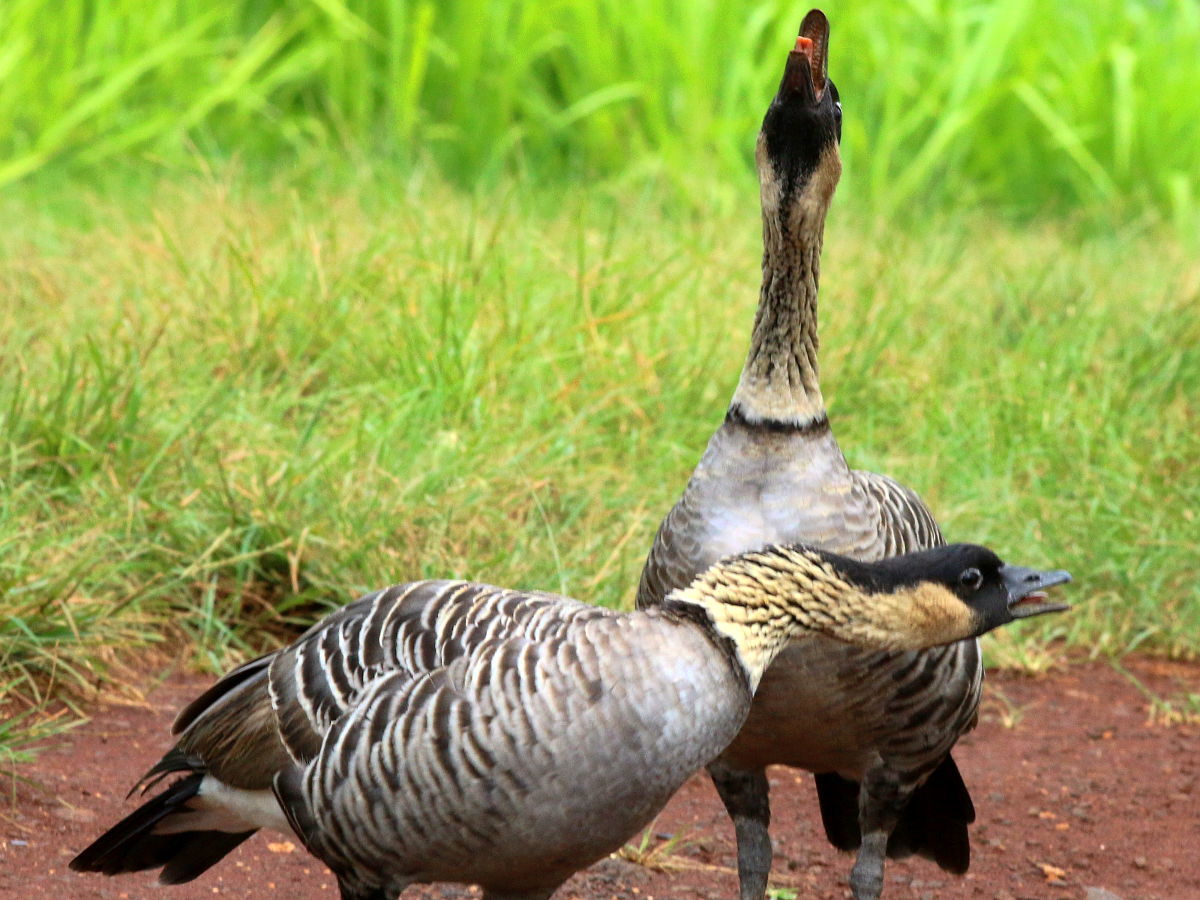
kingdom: Animalia
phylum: Chordata
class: Aves
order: Anseriformes
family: Anatidae
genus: Branta
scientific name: Branta sandvicensis
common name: Nene
